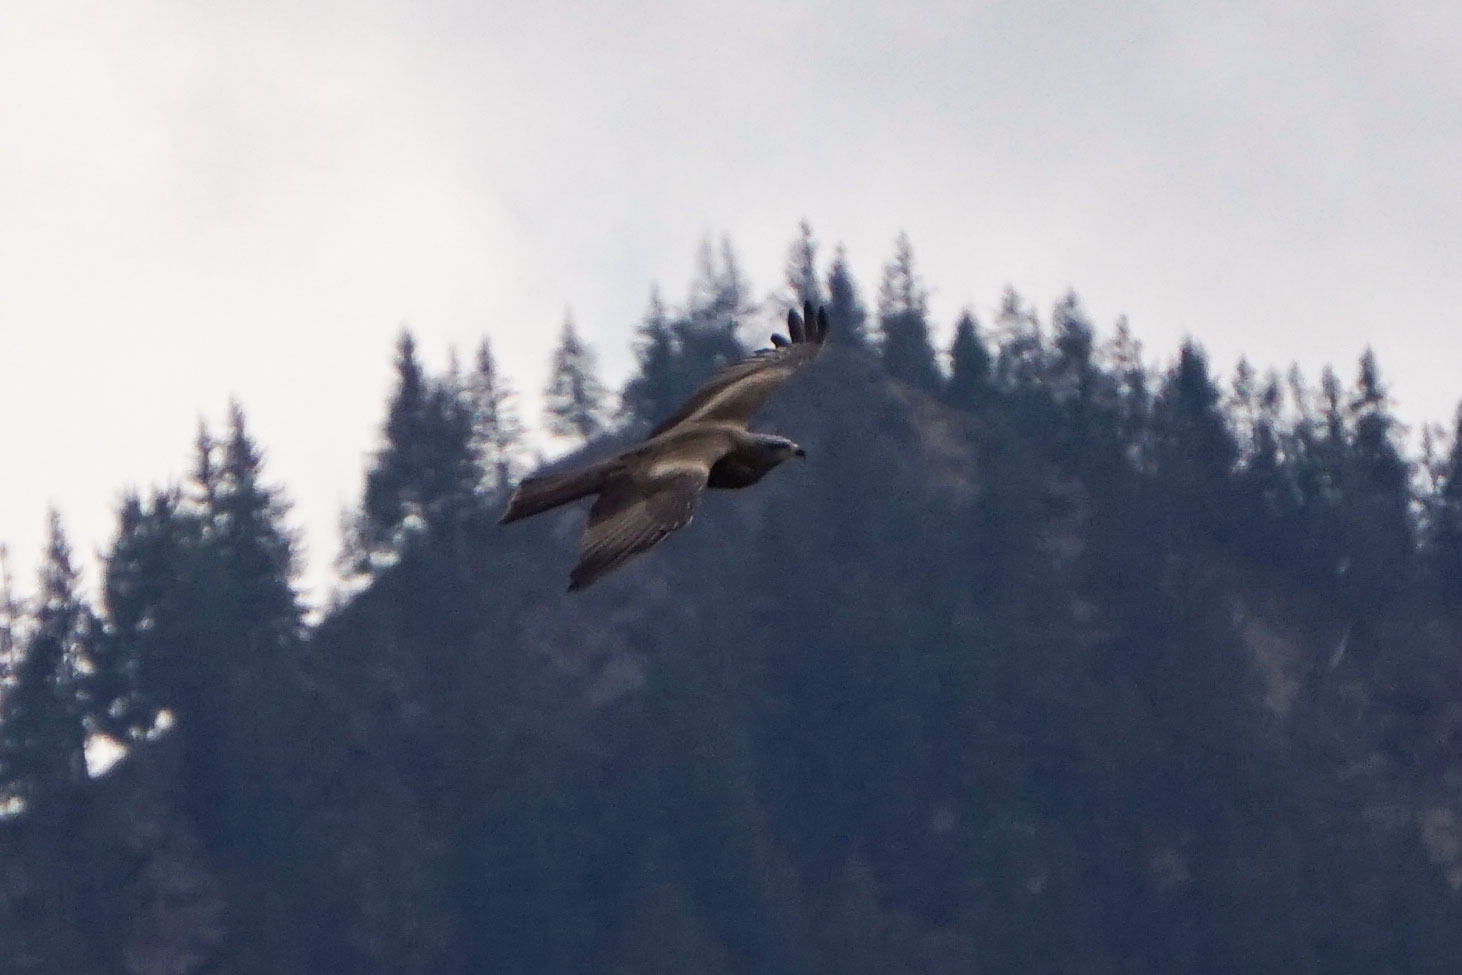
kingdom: Animalia
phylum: Chordata
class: Aves
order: Accipitriformes
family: Accipitridae
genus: Milvus
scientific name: Milvus migrans
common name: Black kite
